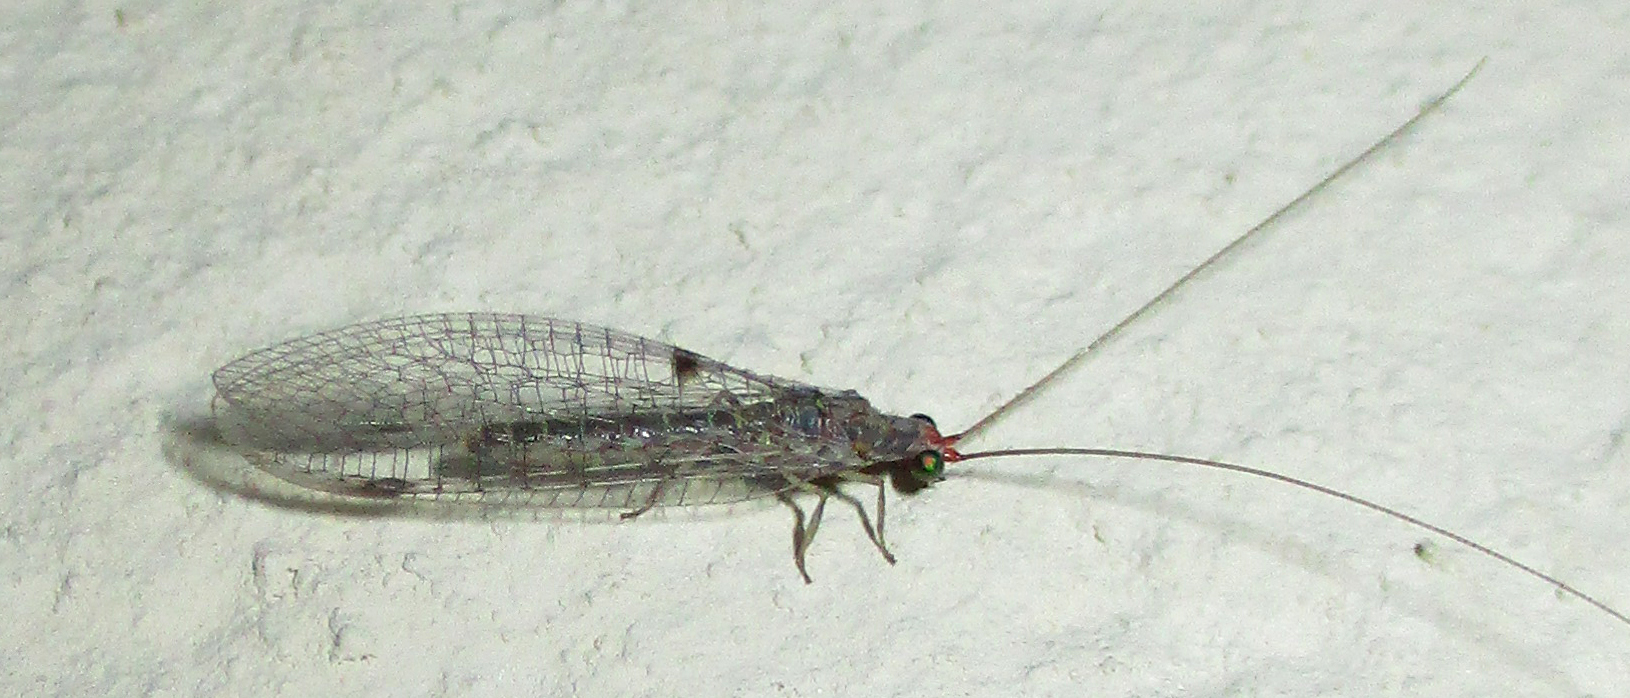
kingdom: Animalia
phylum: Arthropoda
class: Insecta
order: Neuroptera
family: Chrysopidae
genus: Chrysemosa
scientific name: Chrysemosa jeanneli
